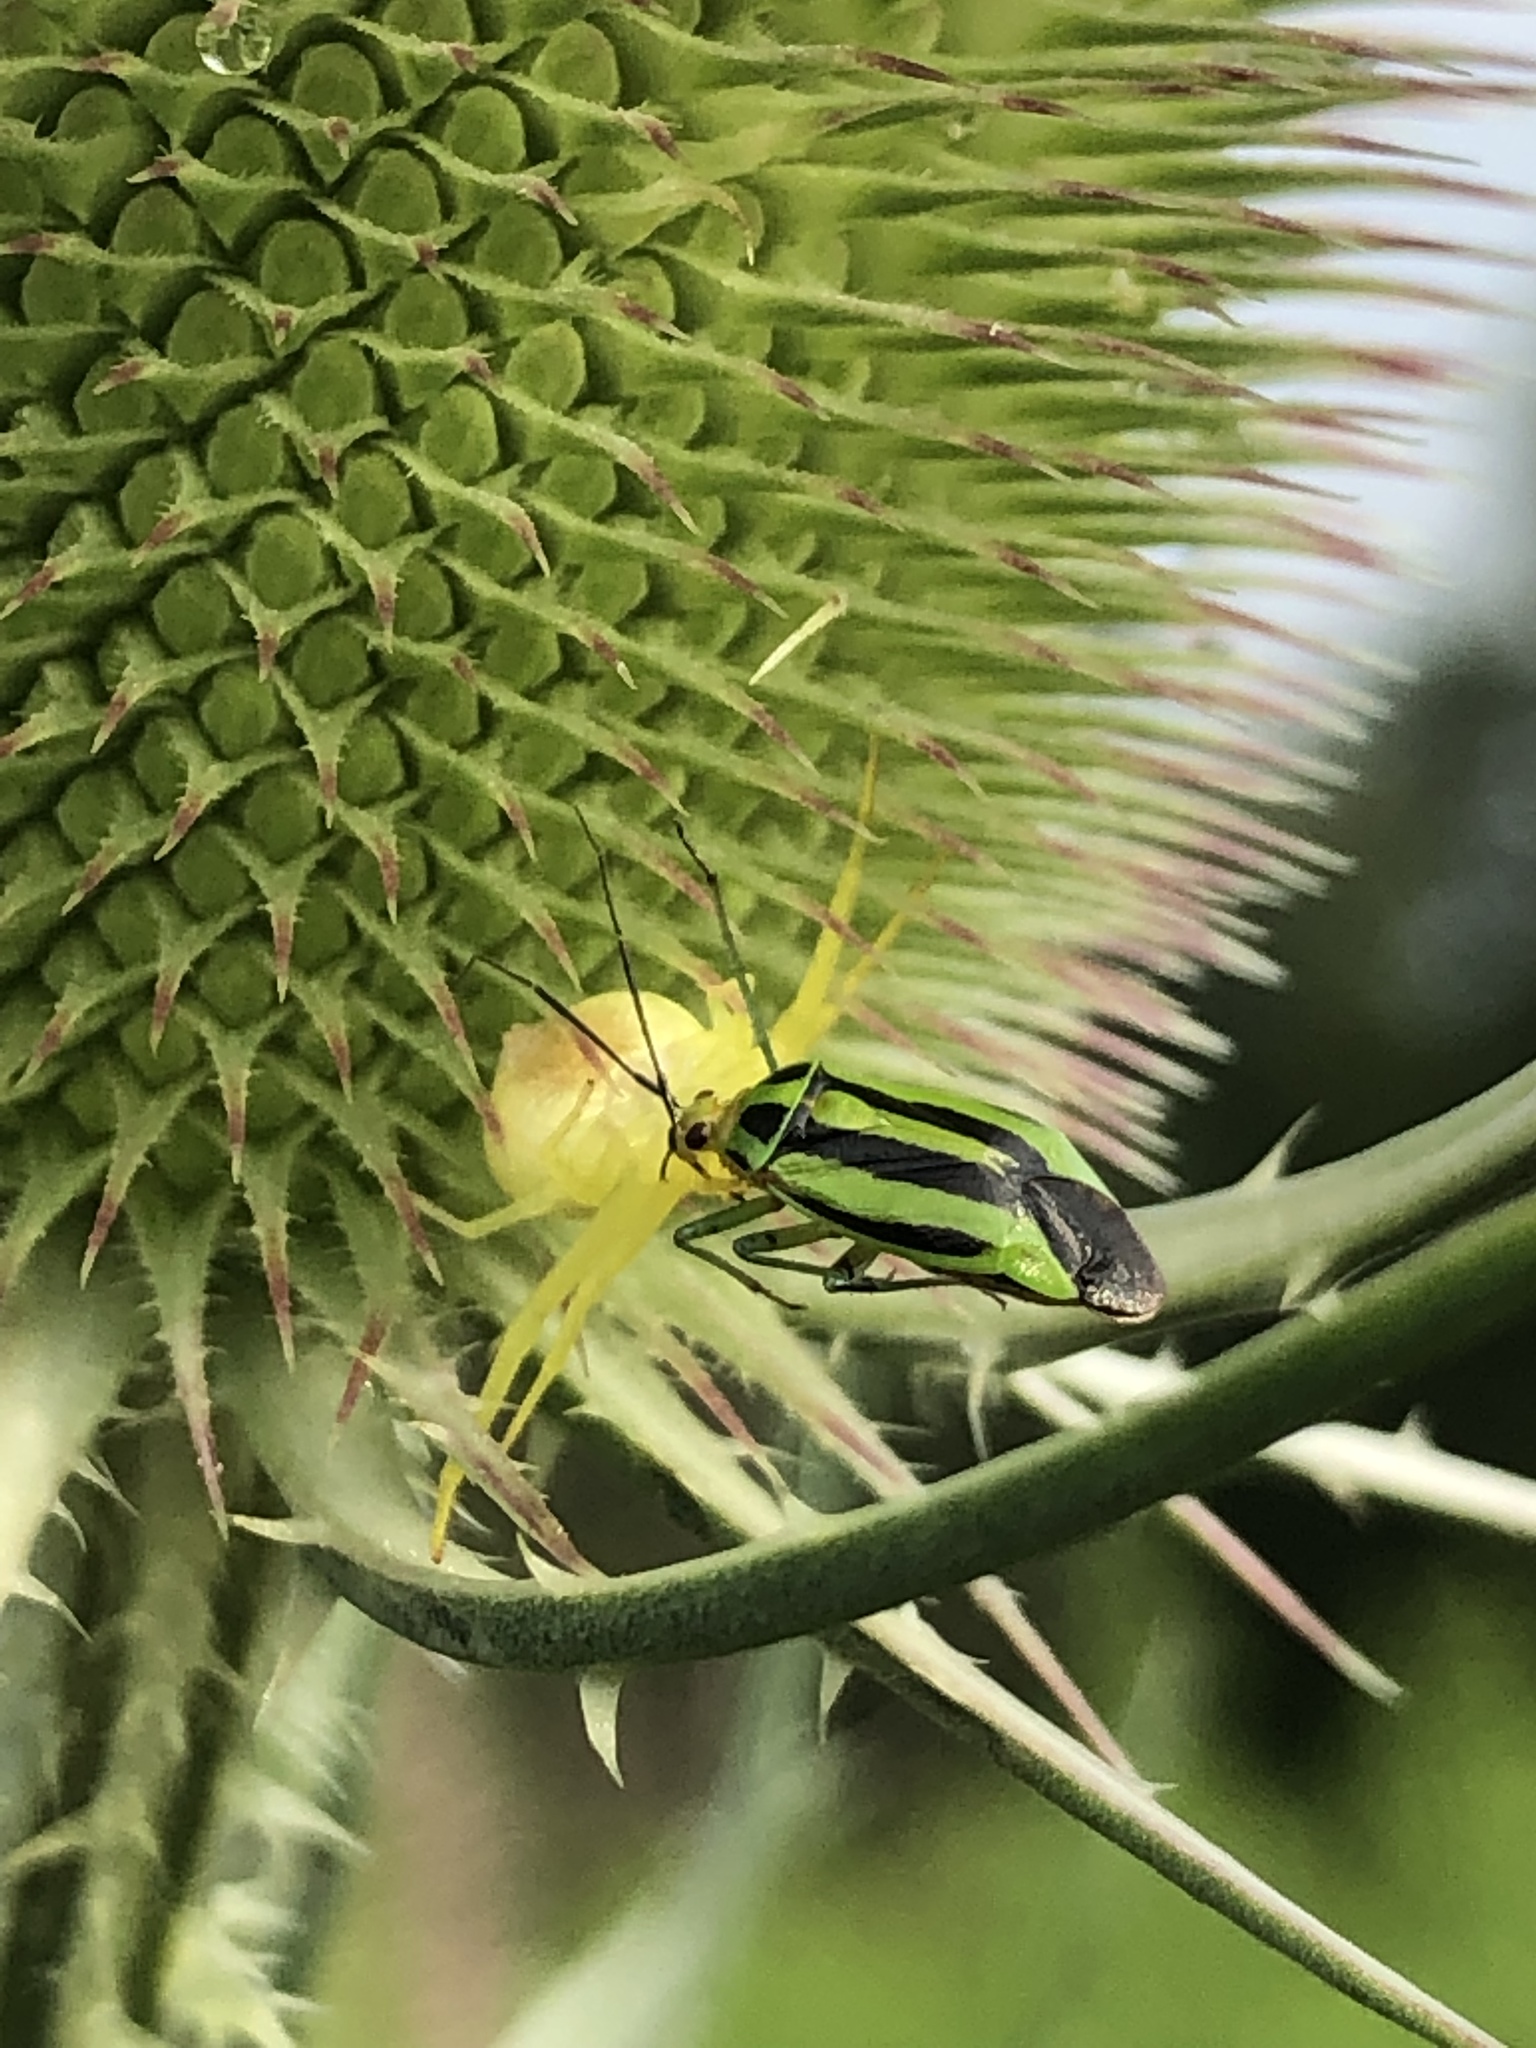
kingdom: Animalia
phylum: Arthropoda
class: Insecta
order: Hemiptera
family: Miridae
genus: Poecilocapsus
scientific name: Poecilocapsus lineatus
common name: Four-lined plant bug
